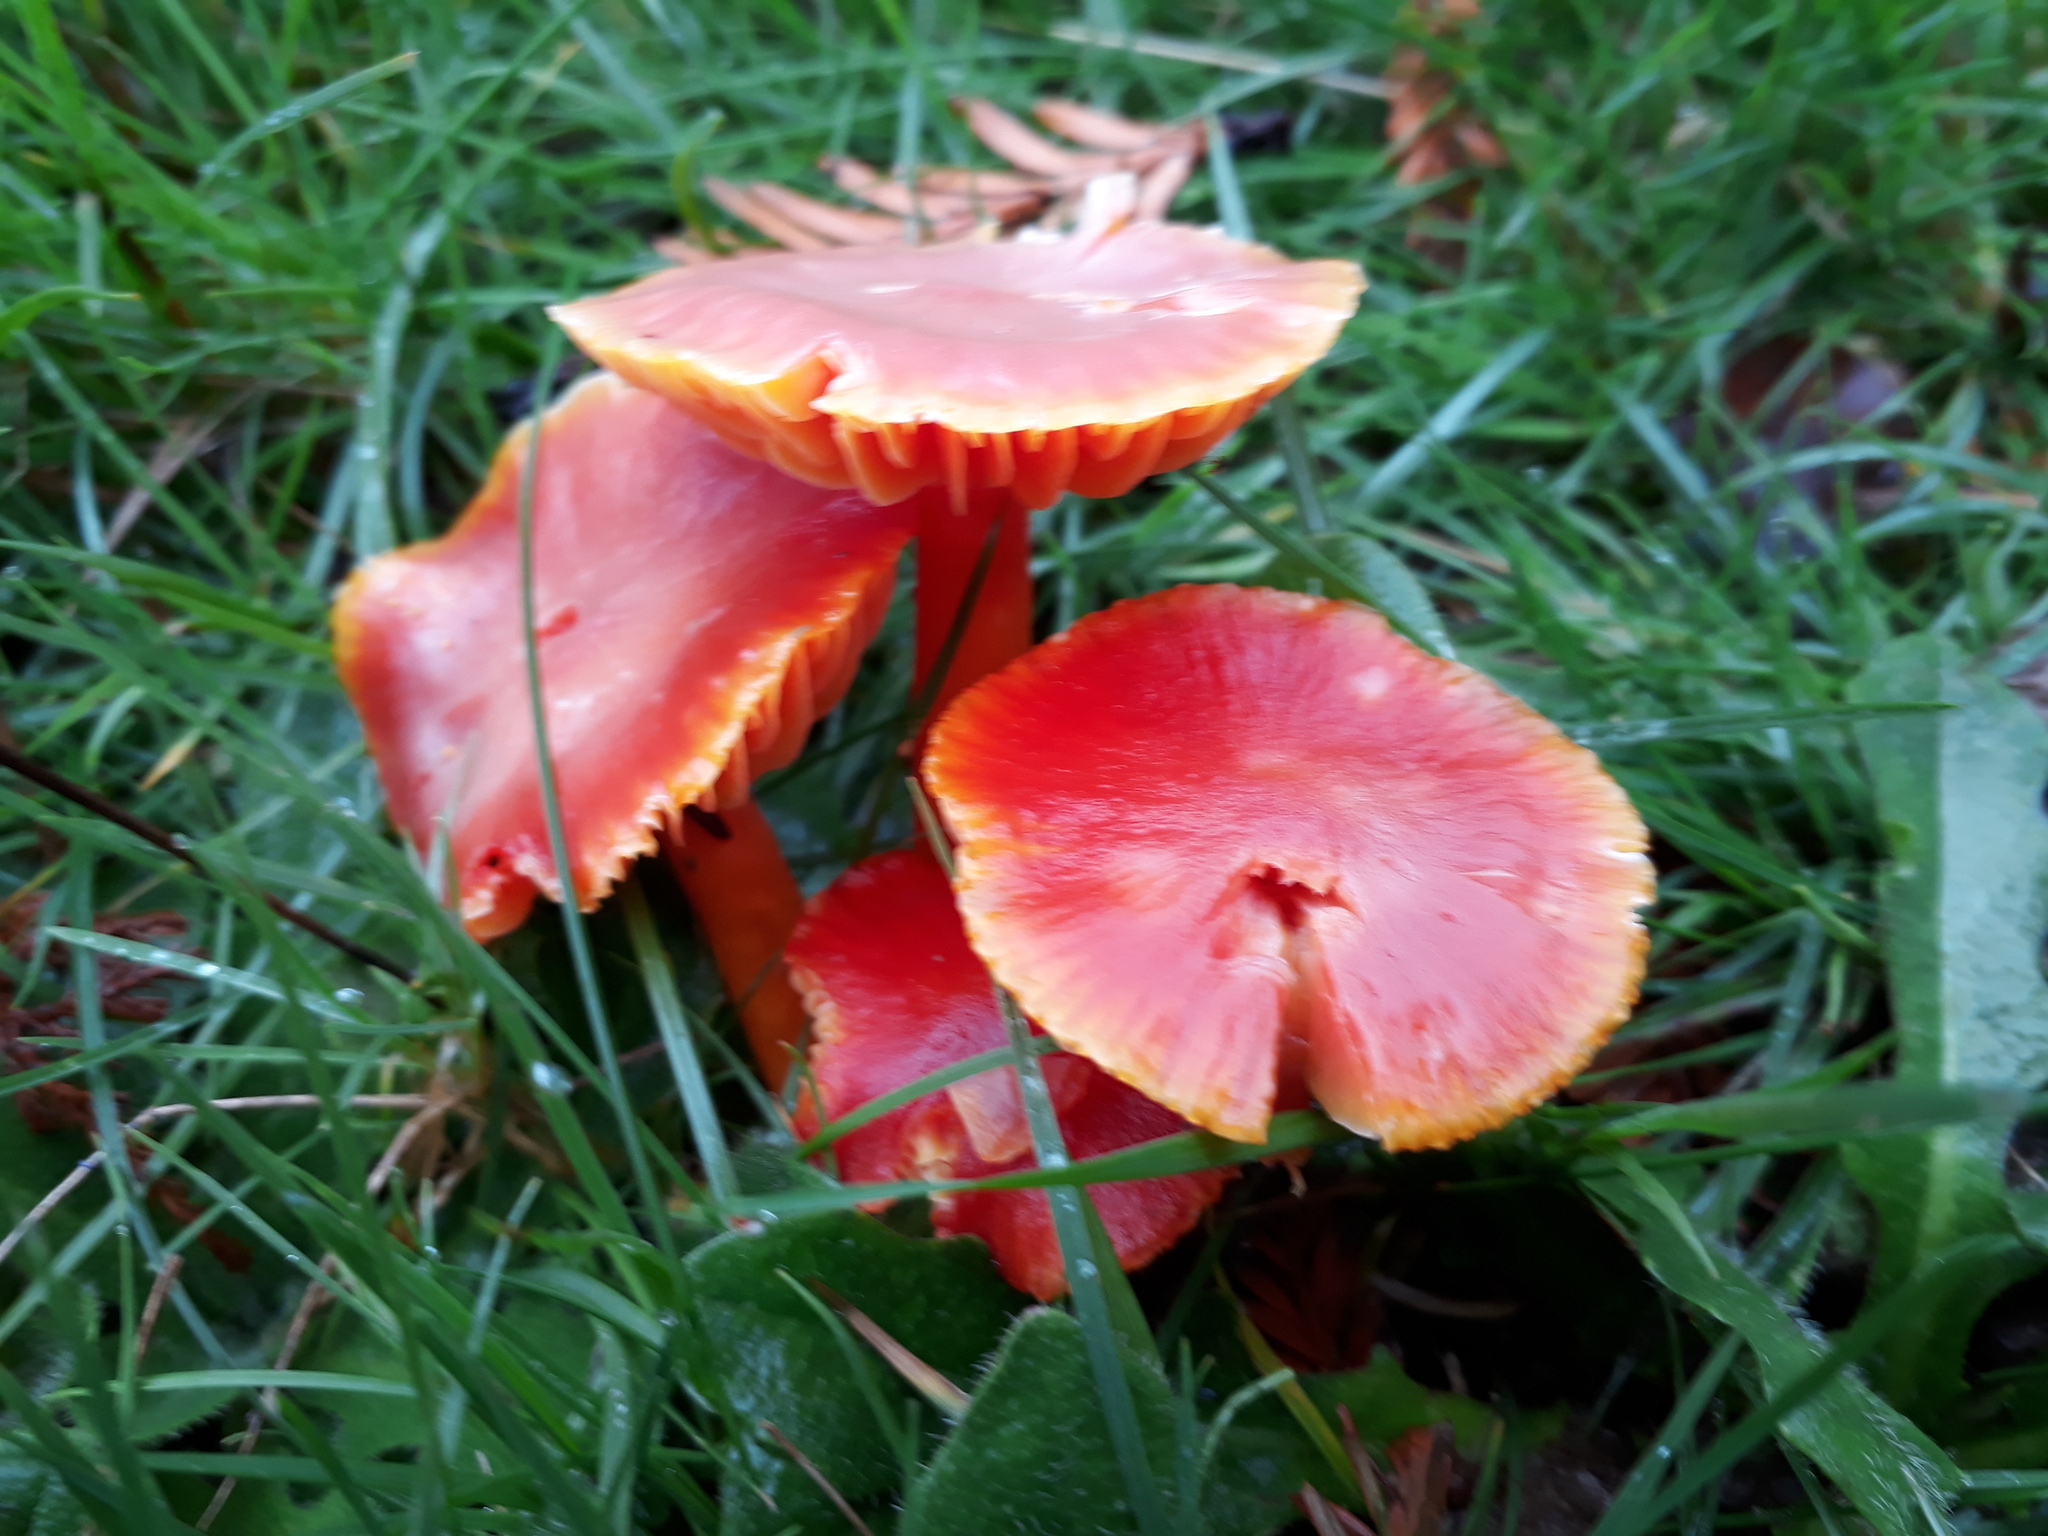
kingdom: Fungi
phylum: Basidiomycota
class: Agaricomycetes
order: Agaricales
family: Hygrophoraceae
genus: Hygrocybe
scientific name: Hygrocybe coccinea
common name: Scarlet hood
